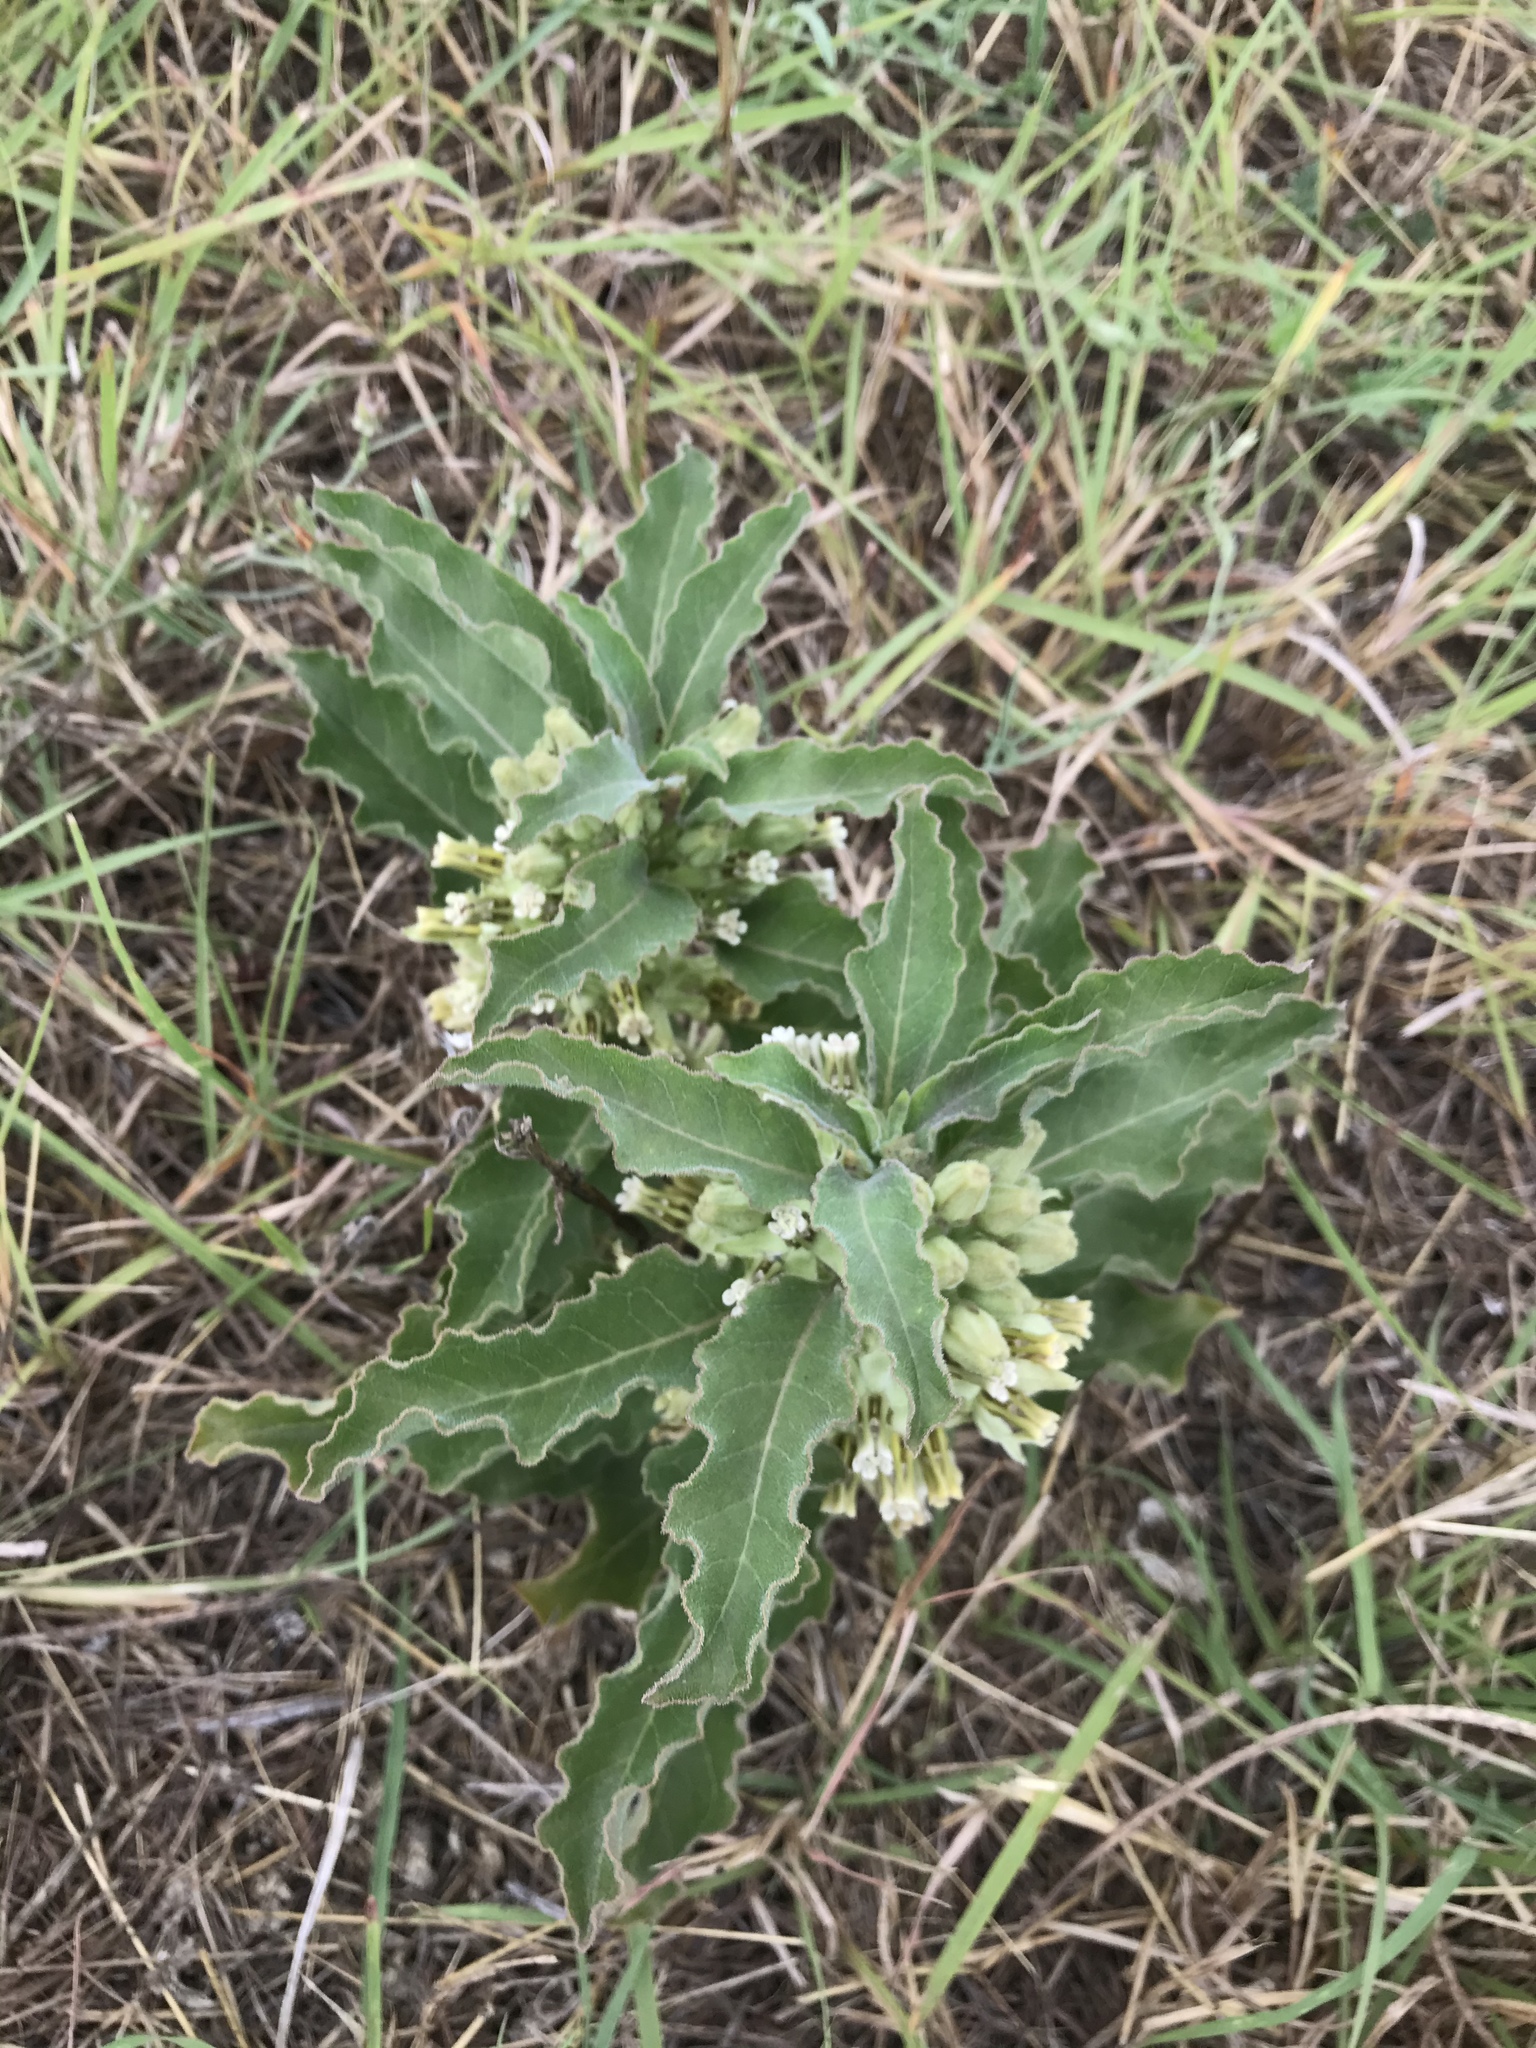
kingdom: Plantae
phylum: Tracheophyta
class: Magnoliopsida
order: Gentianales
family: Apocynaceae
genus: Asclepias
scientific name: Asclepias oenotheroides
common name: Zizotes milkweed
